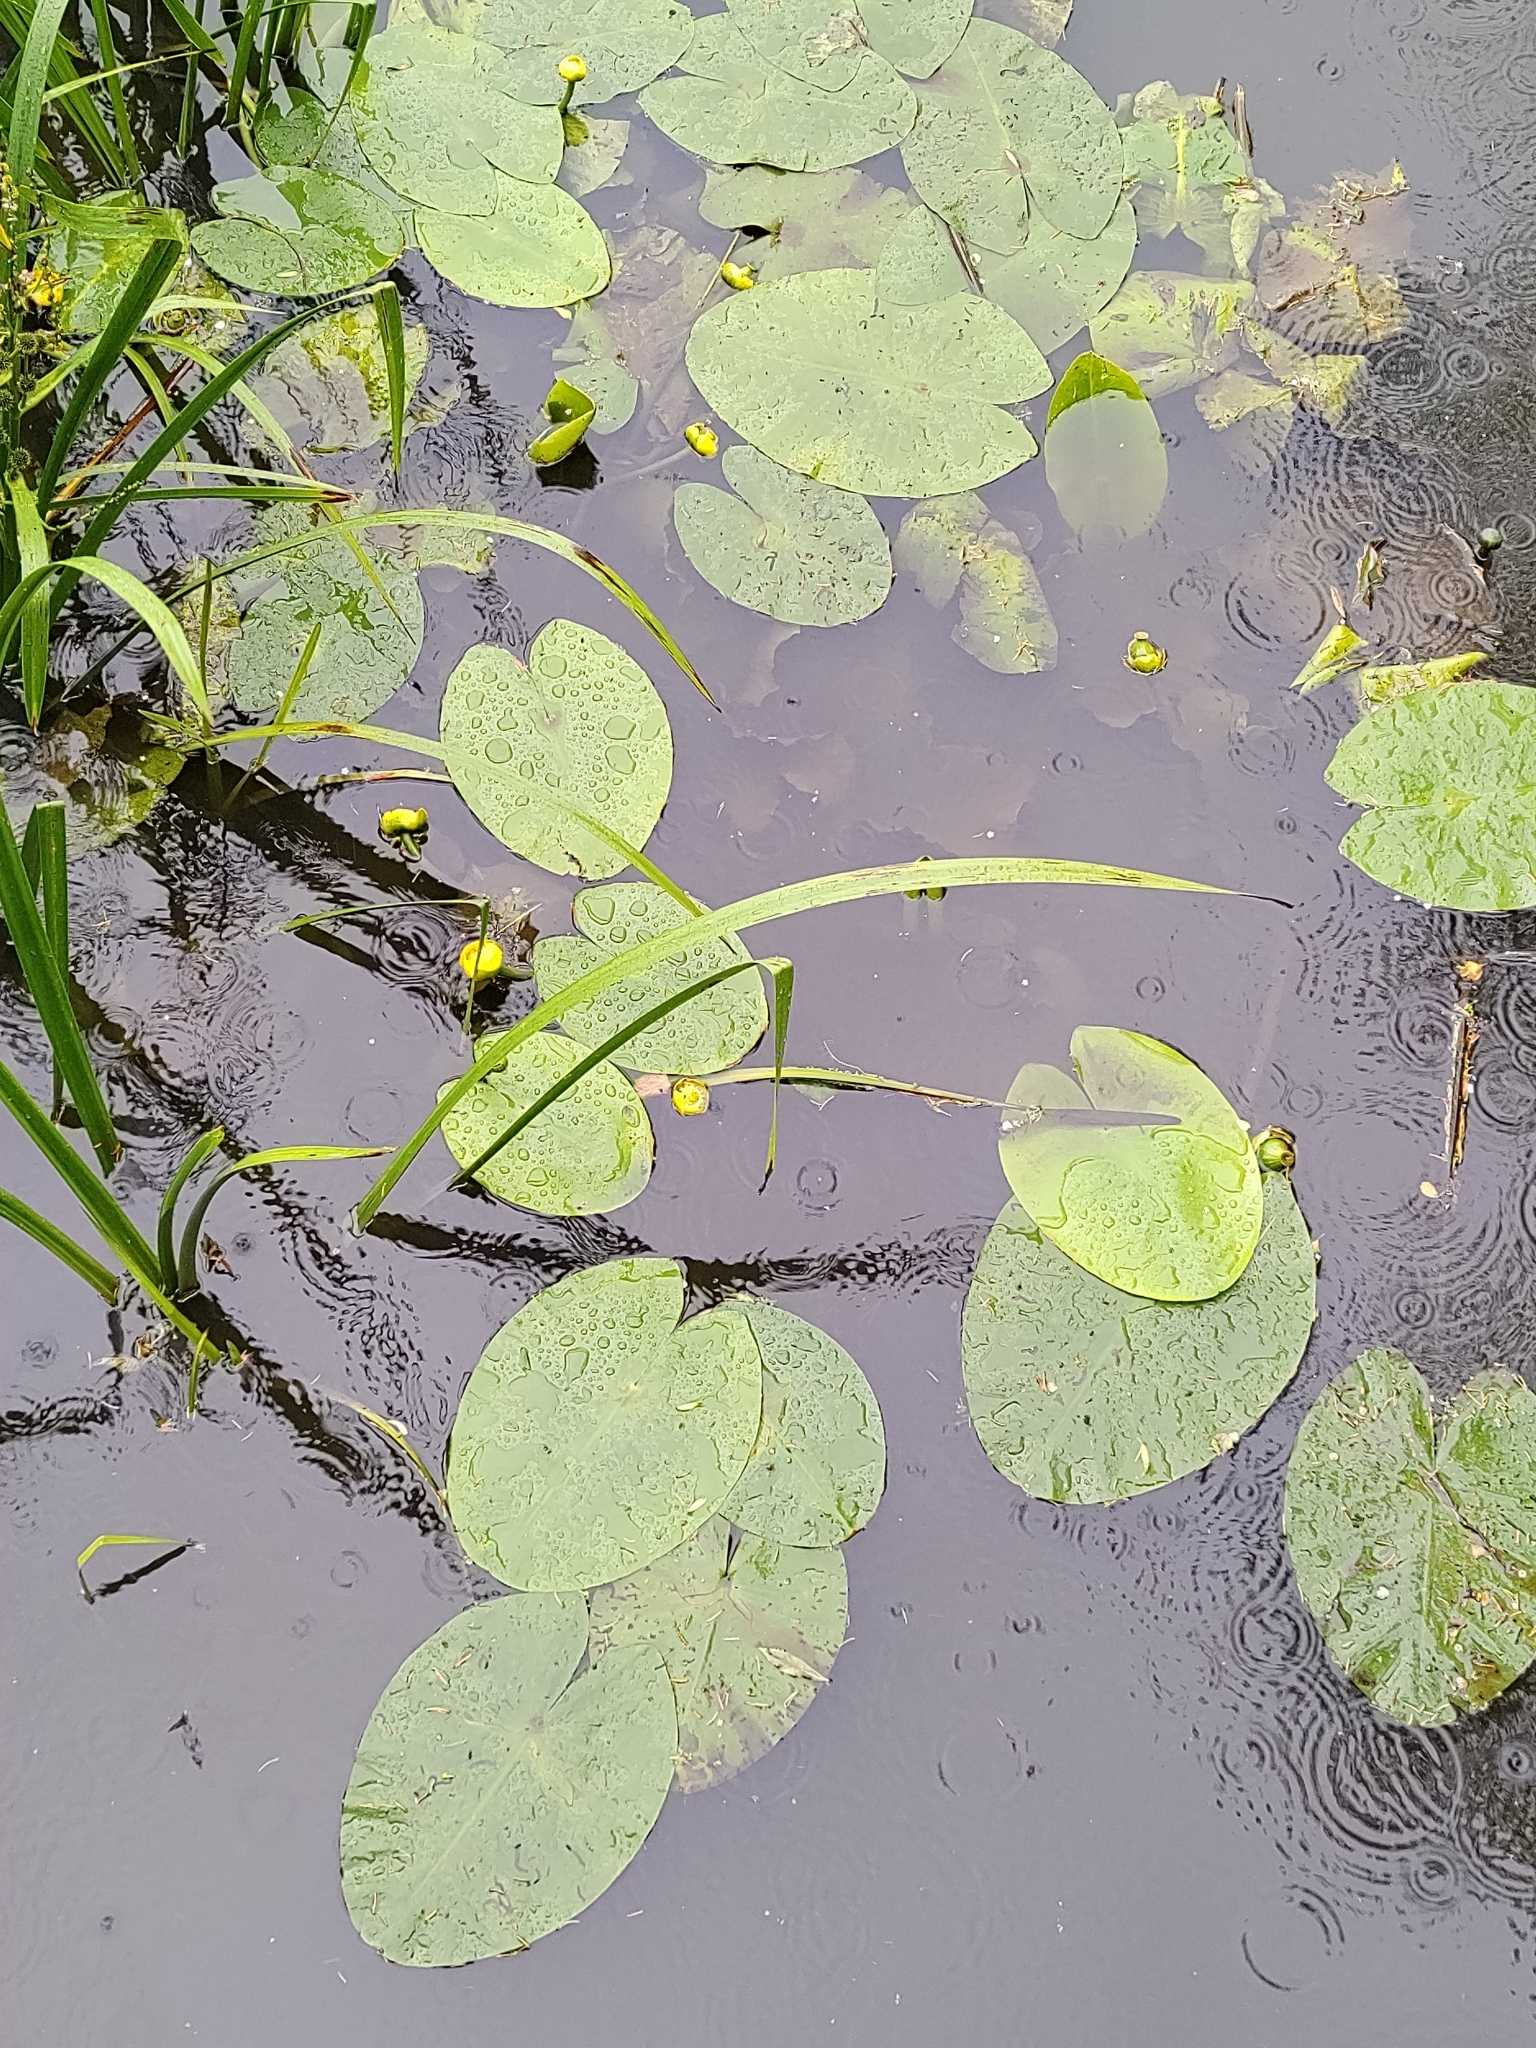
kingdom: Plantae
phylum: Tracheophyta
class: Magnoliopsida
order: Nymphaeales
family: Nymphaeaceae
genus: Nuphar
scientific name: Nuphar lutea
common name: Yellow water-lily
